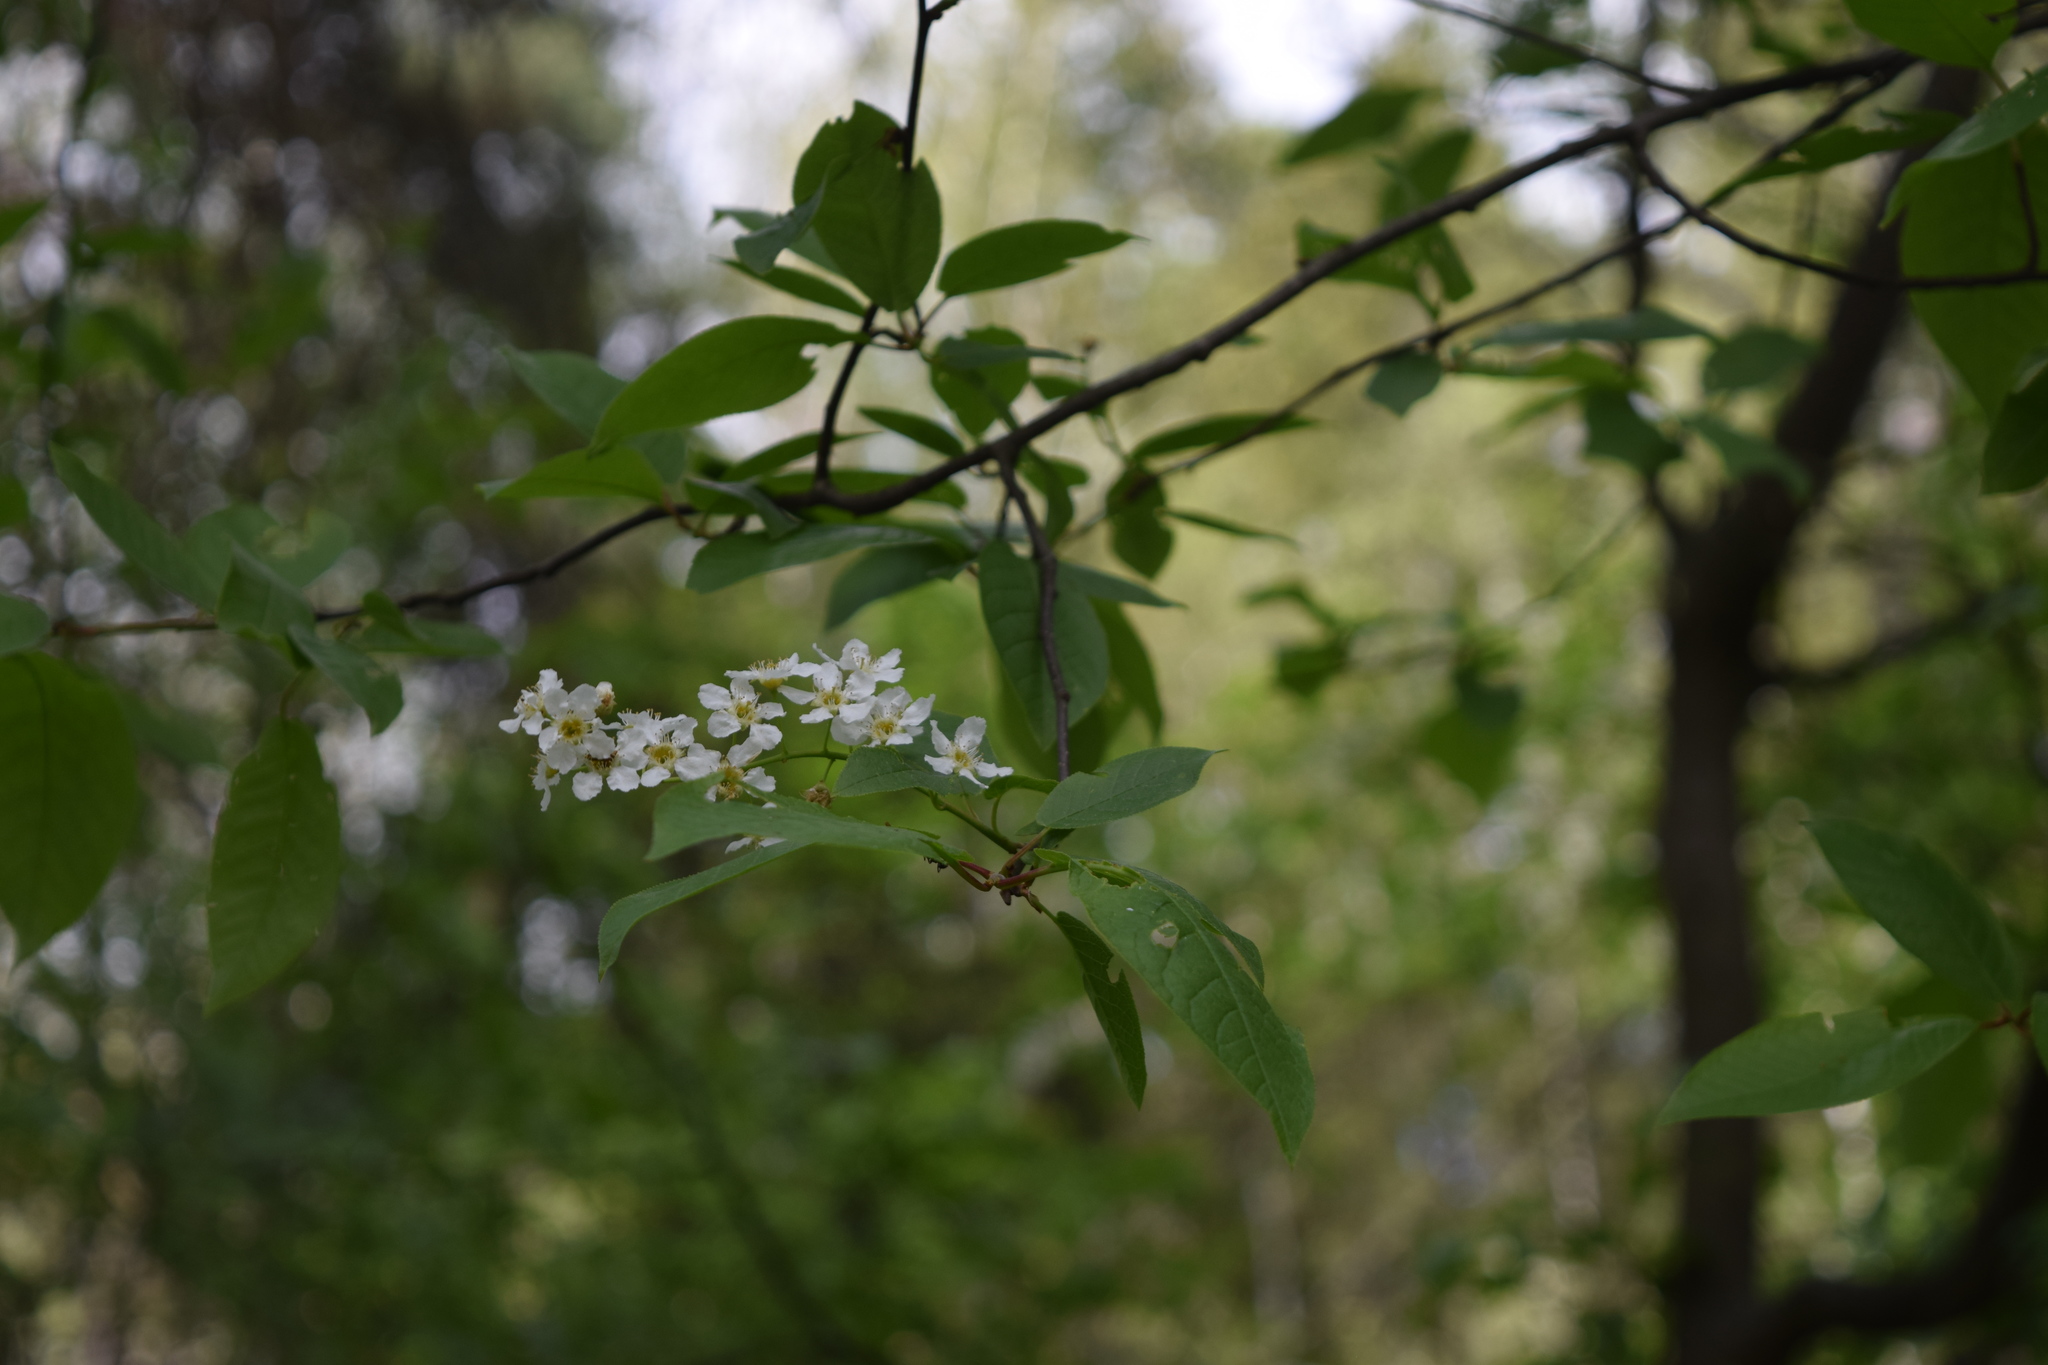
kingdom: Plantae
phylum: Tracheophyta
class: Magnoliopsida
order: Rosales
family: Rosaceae
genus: Prunus
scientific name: Prunus padus
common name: Bird cherry
